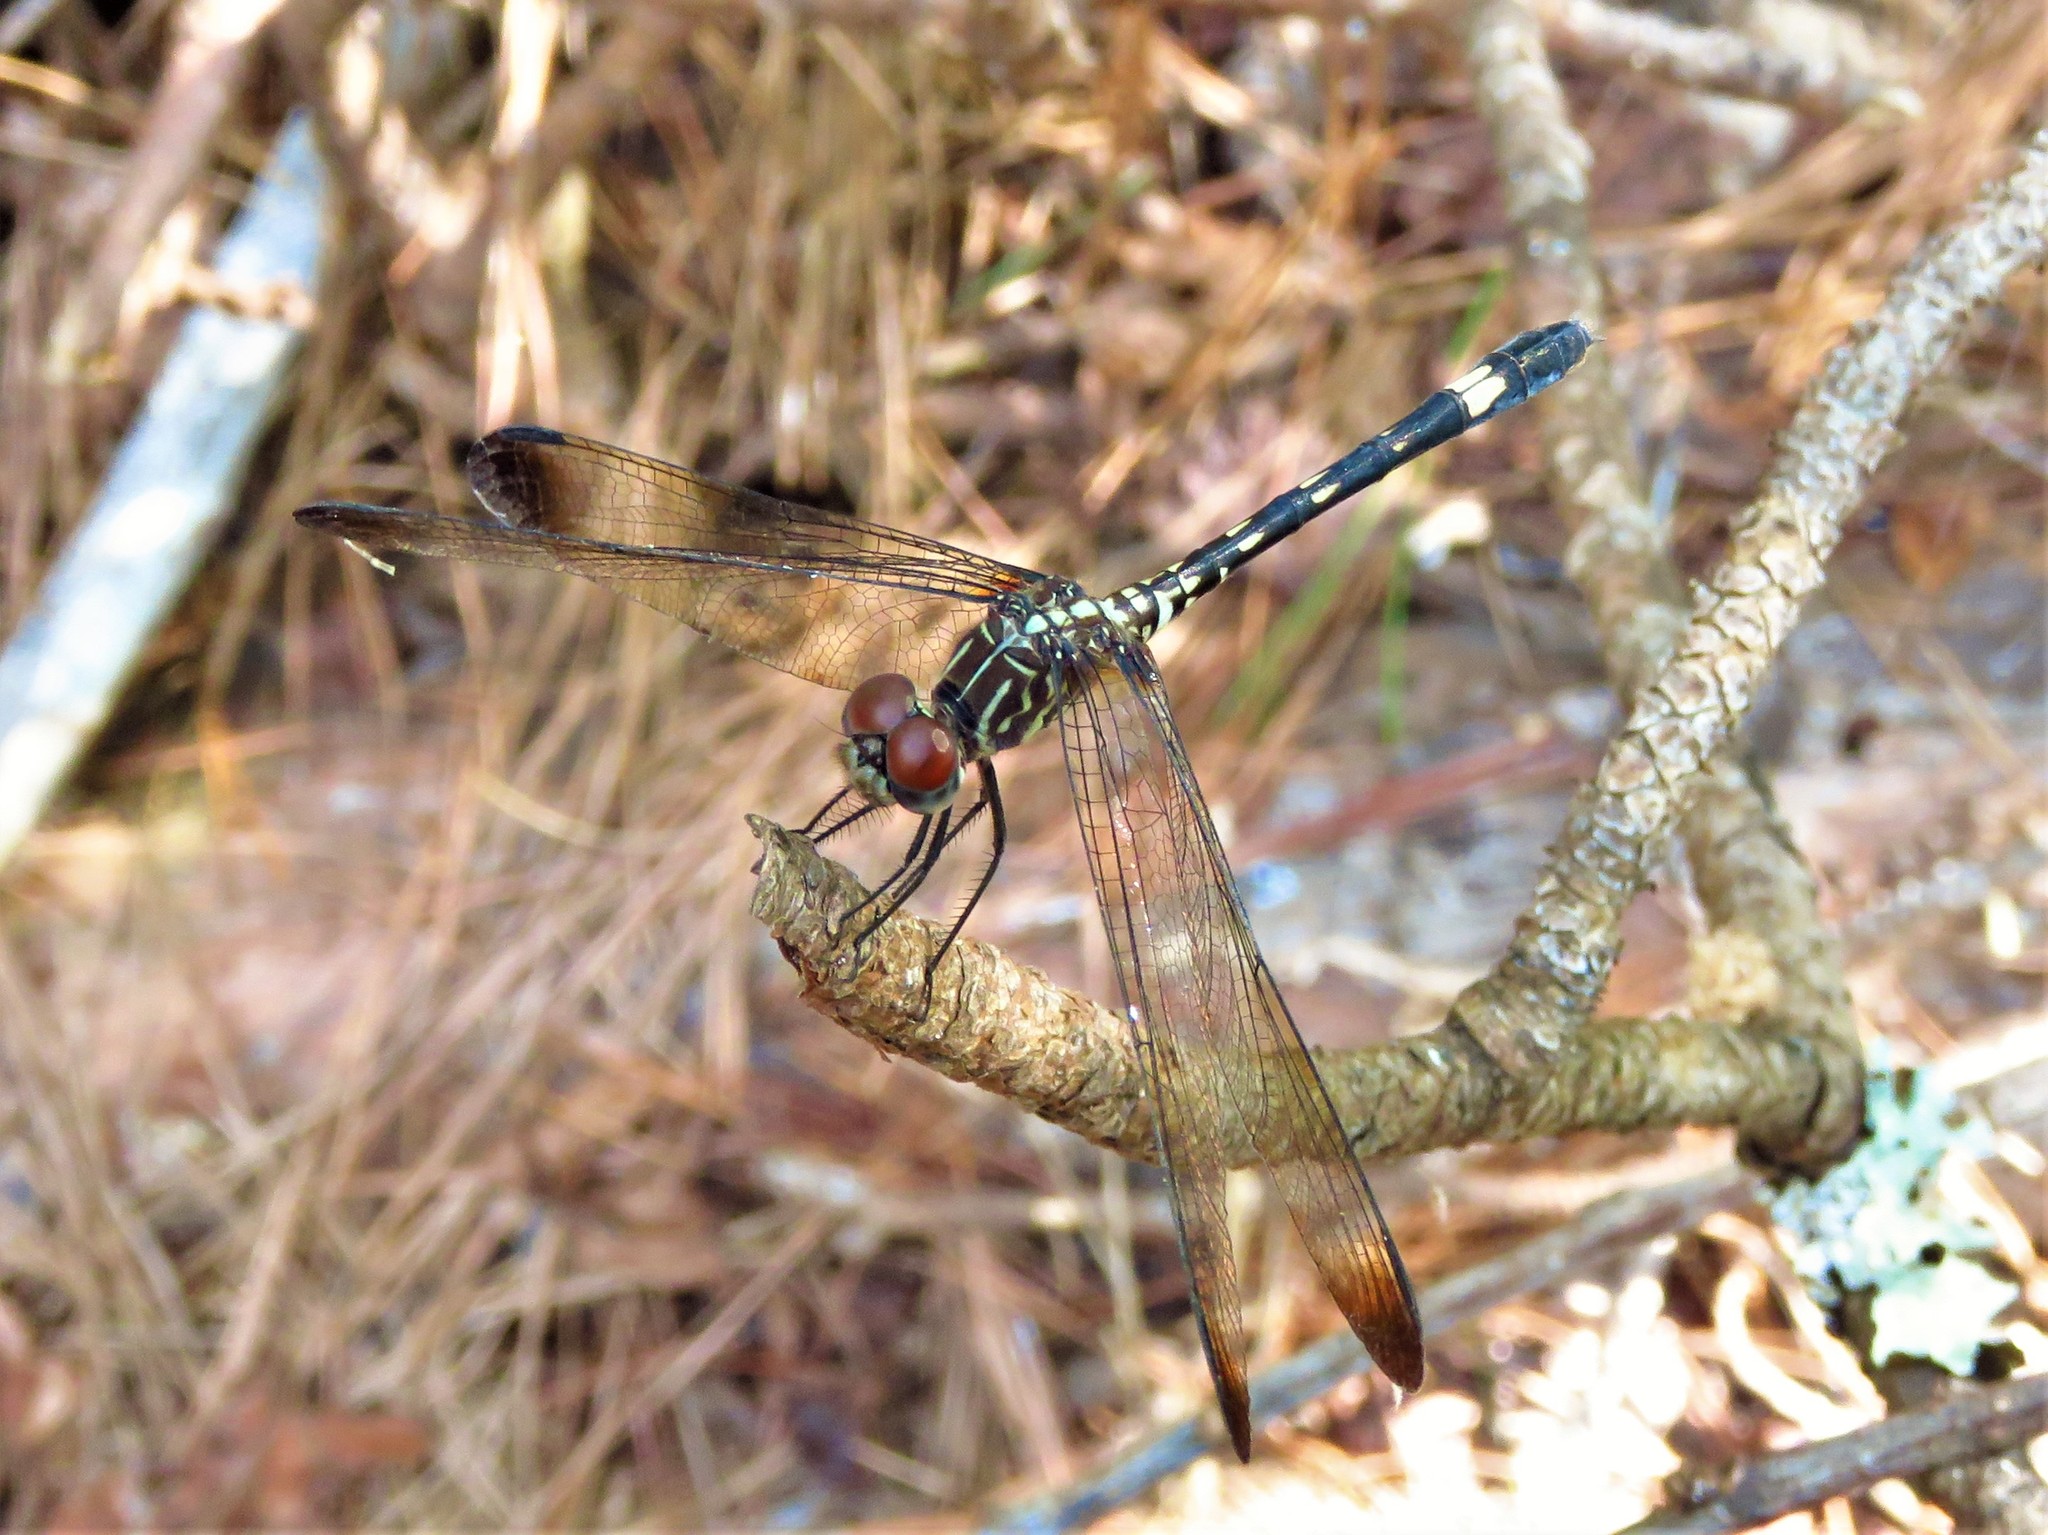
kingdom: Animalia
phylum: Arthropoda
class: Insecta
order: Odonata
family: Libellulidae
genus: Dythemis
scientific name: Dythemis velox
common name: Swift setwing
